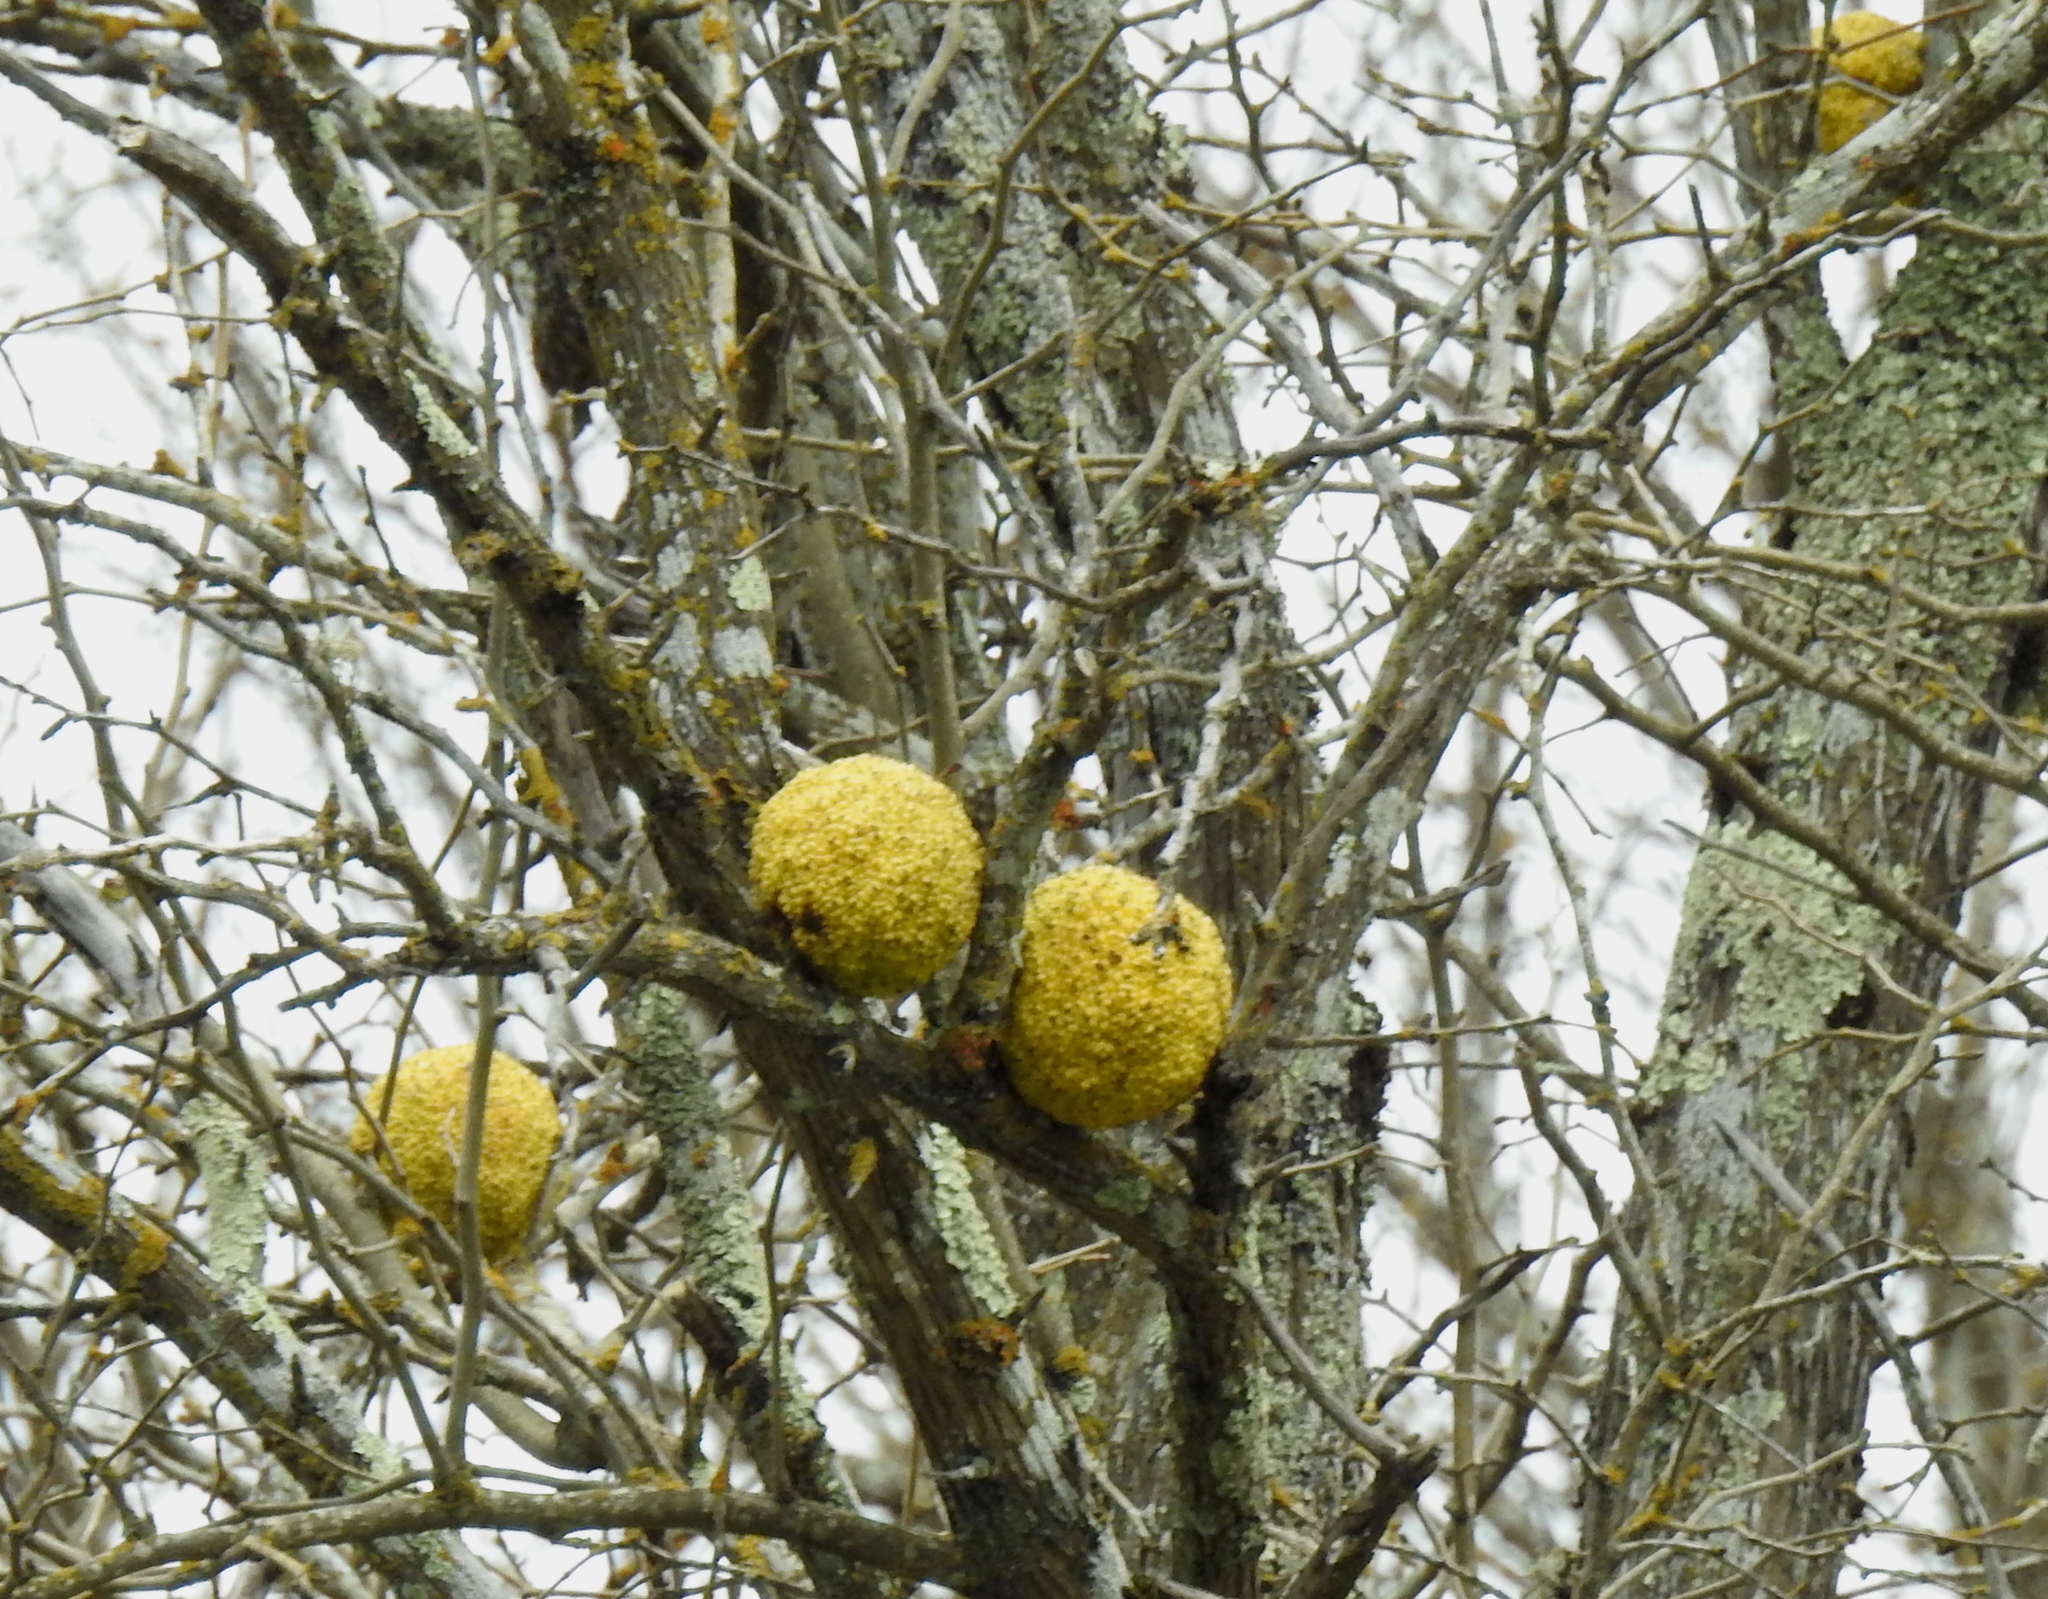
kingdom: Plantae
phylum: Tracheophyta
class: Magnoliopsida
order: Rosales
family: Moraceae
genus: Maclura
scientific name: Maclura pomifera
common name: Osage-orange
